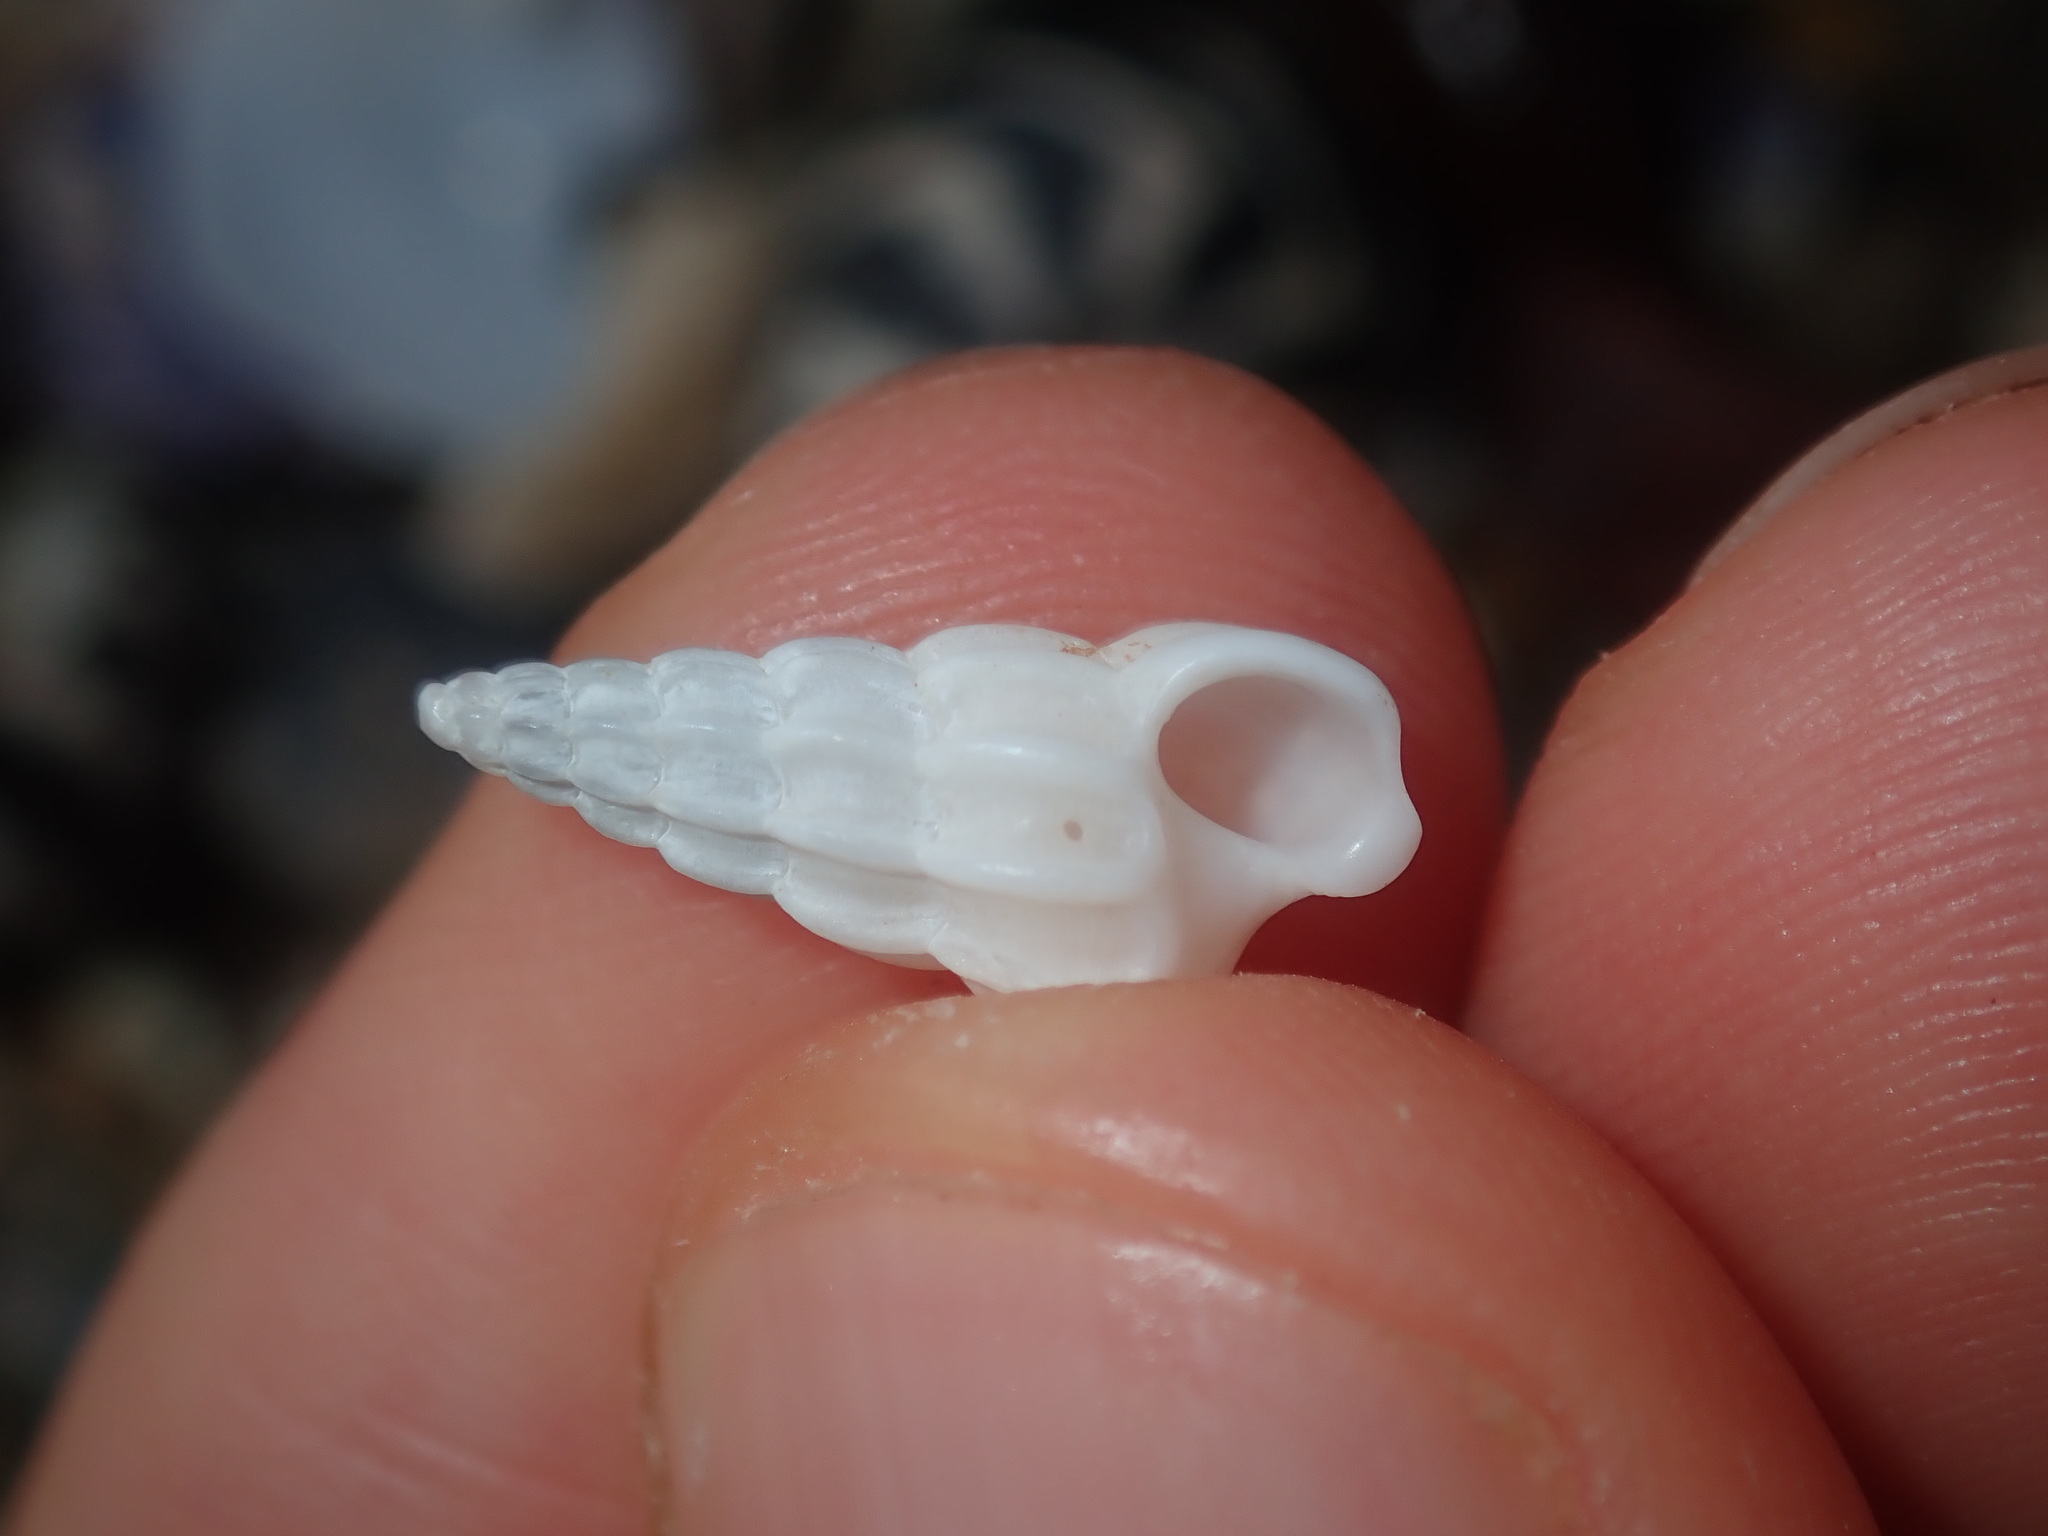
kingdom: Animalia
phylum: Mollusca
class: Gastropoda
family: Epitoniidae
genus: Opalia
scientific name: Opalia australis
